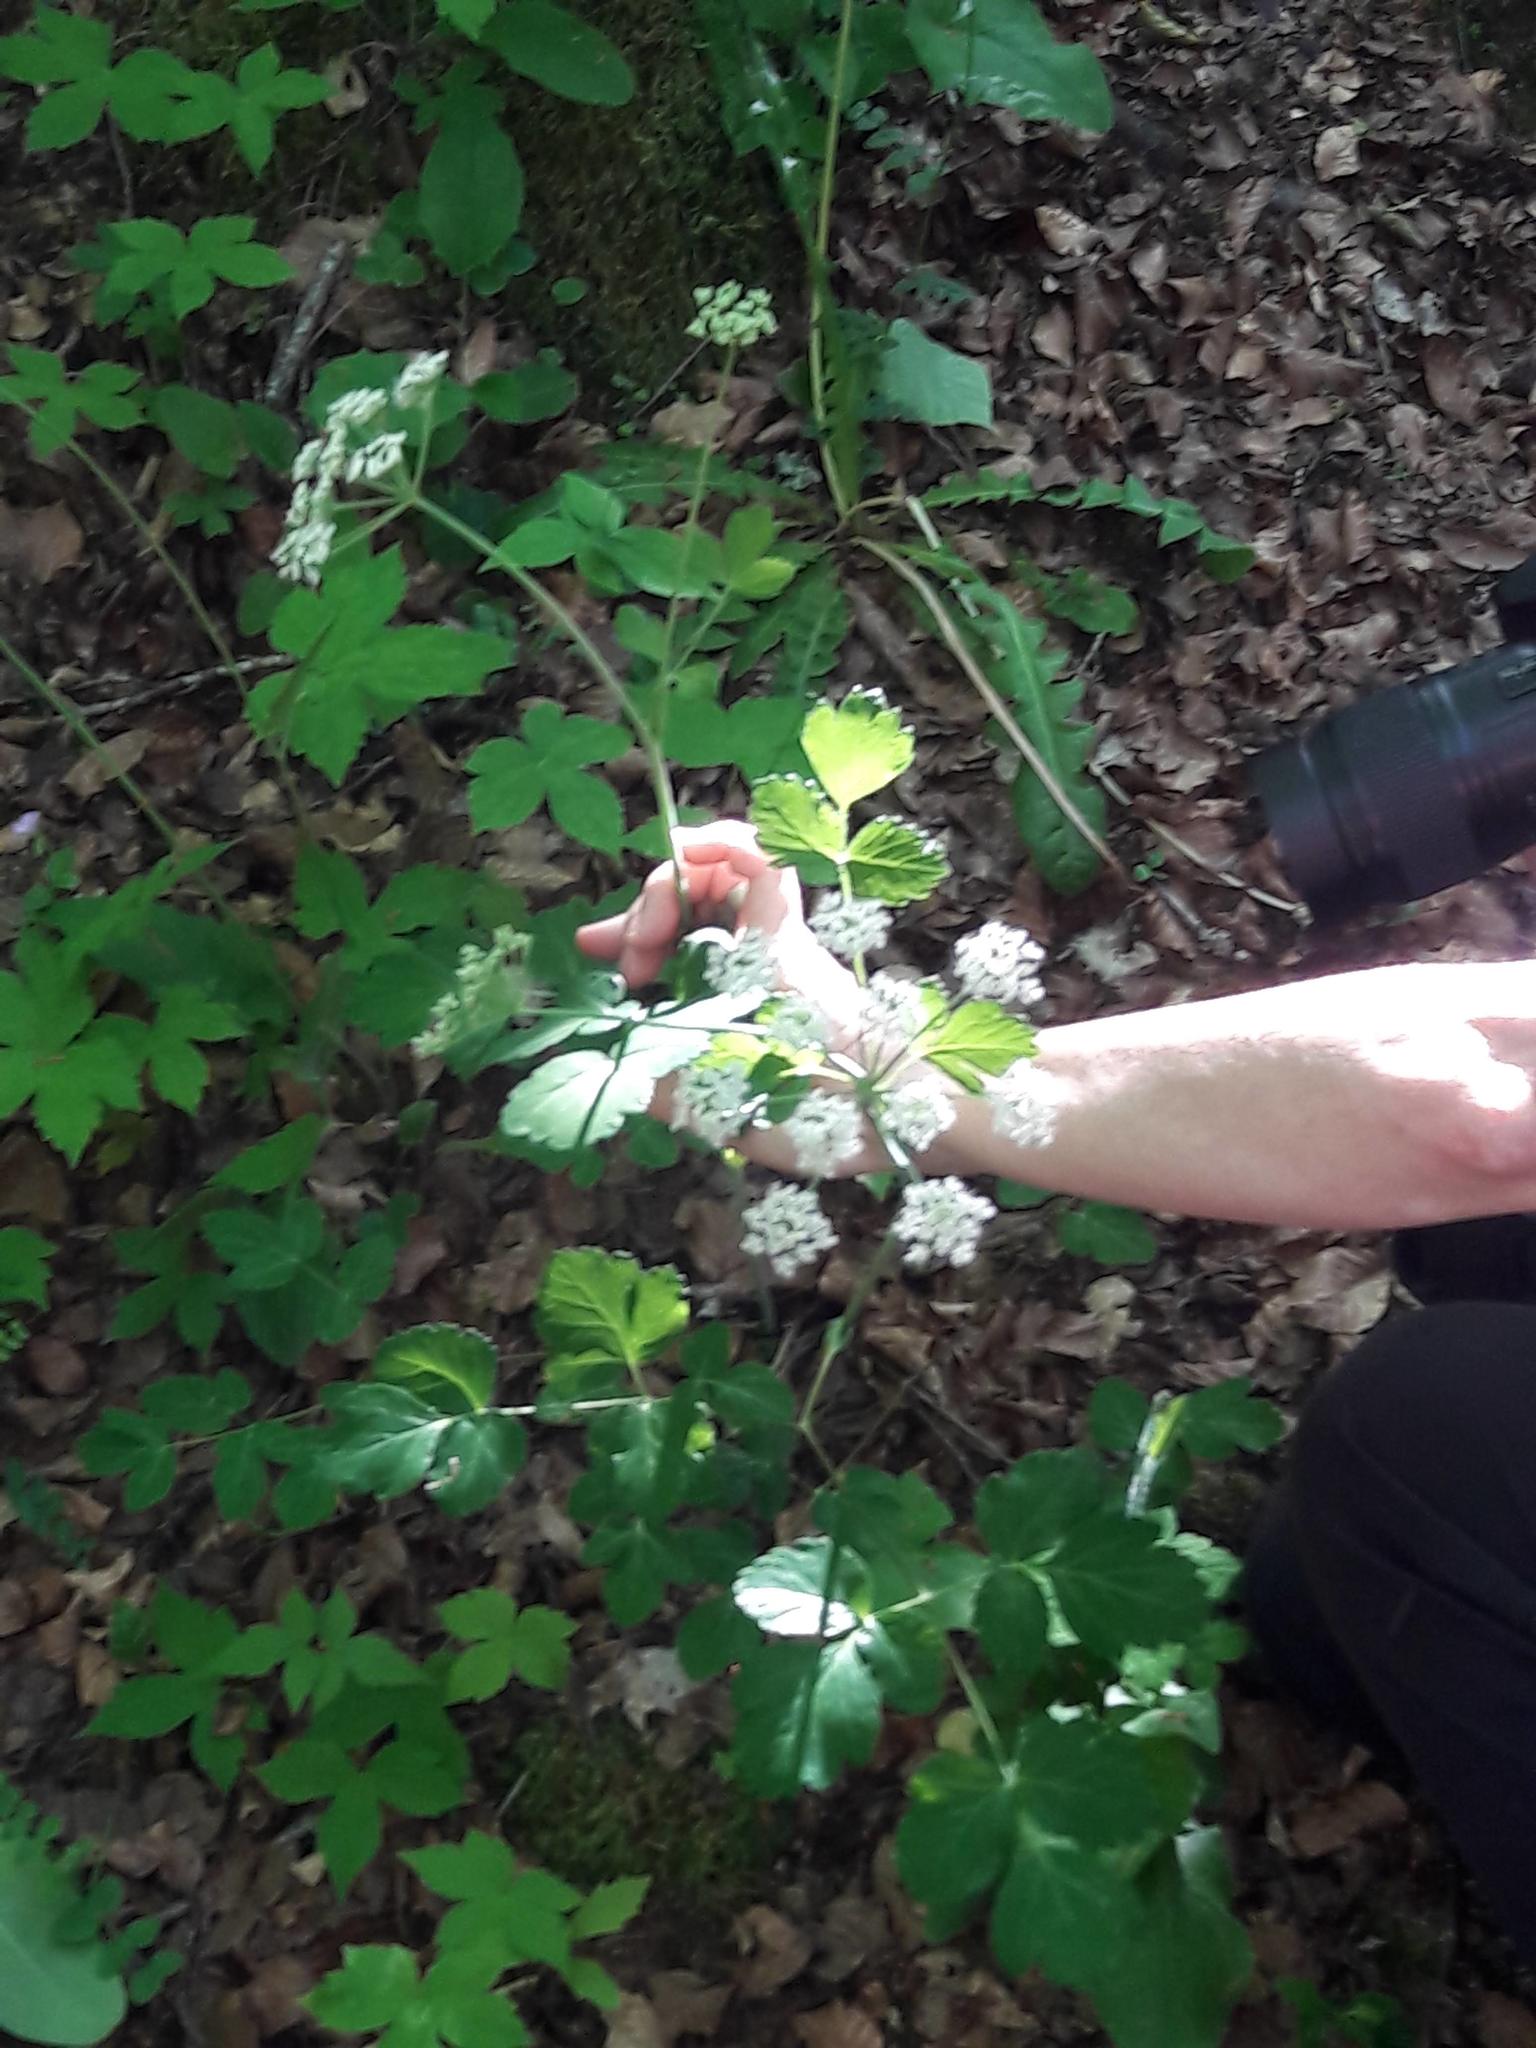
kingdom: Plantae
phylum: Tracheophyta
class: Magnoliopsida
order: Apiales
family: Apiaceae
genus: Thapsia
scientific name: Thapsia nestleri
